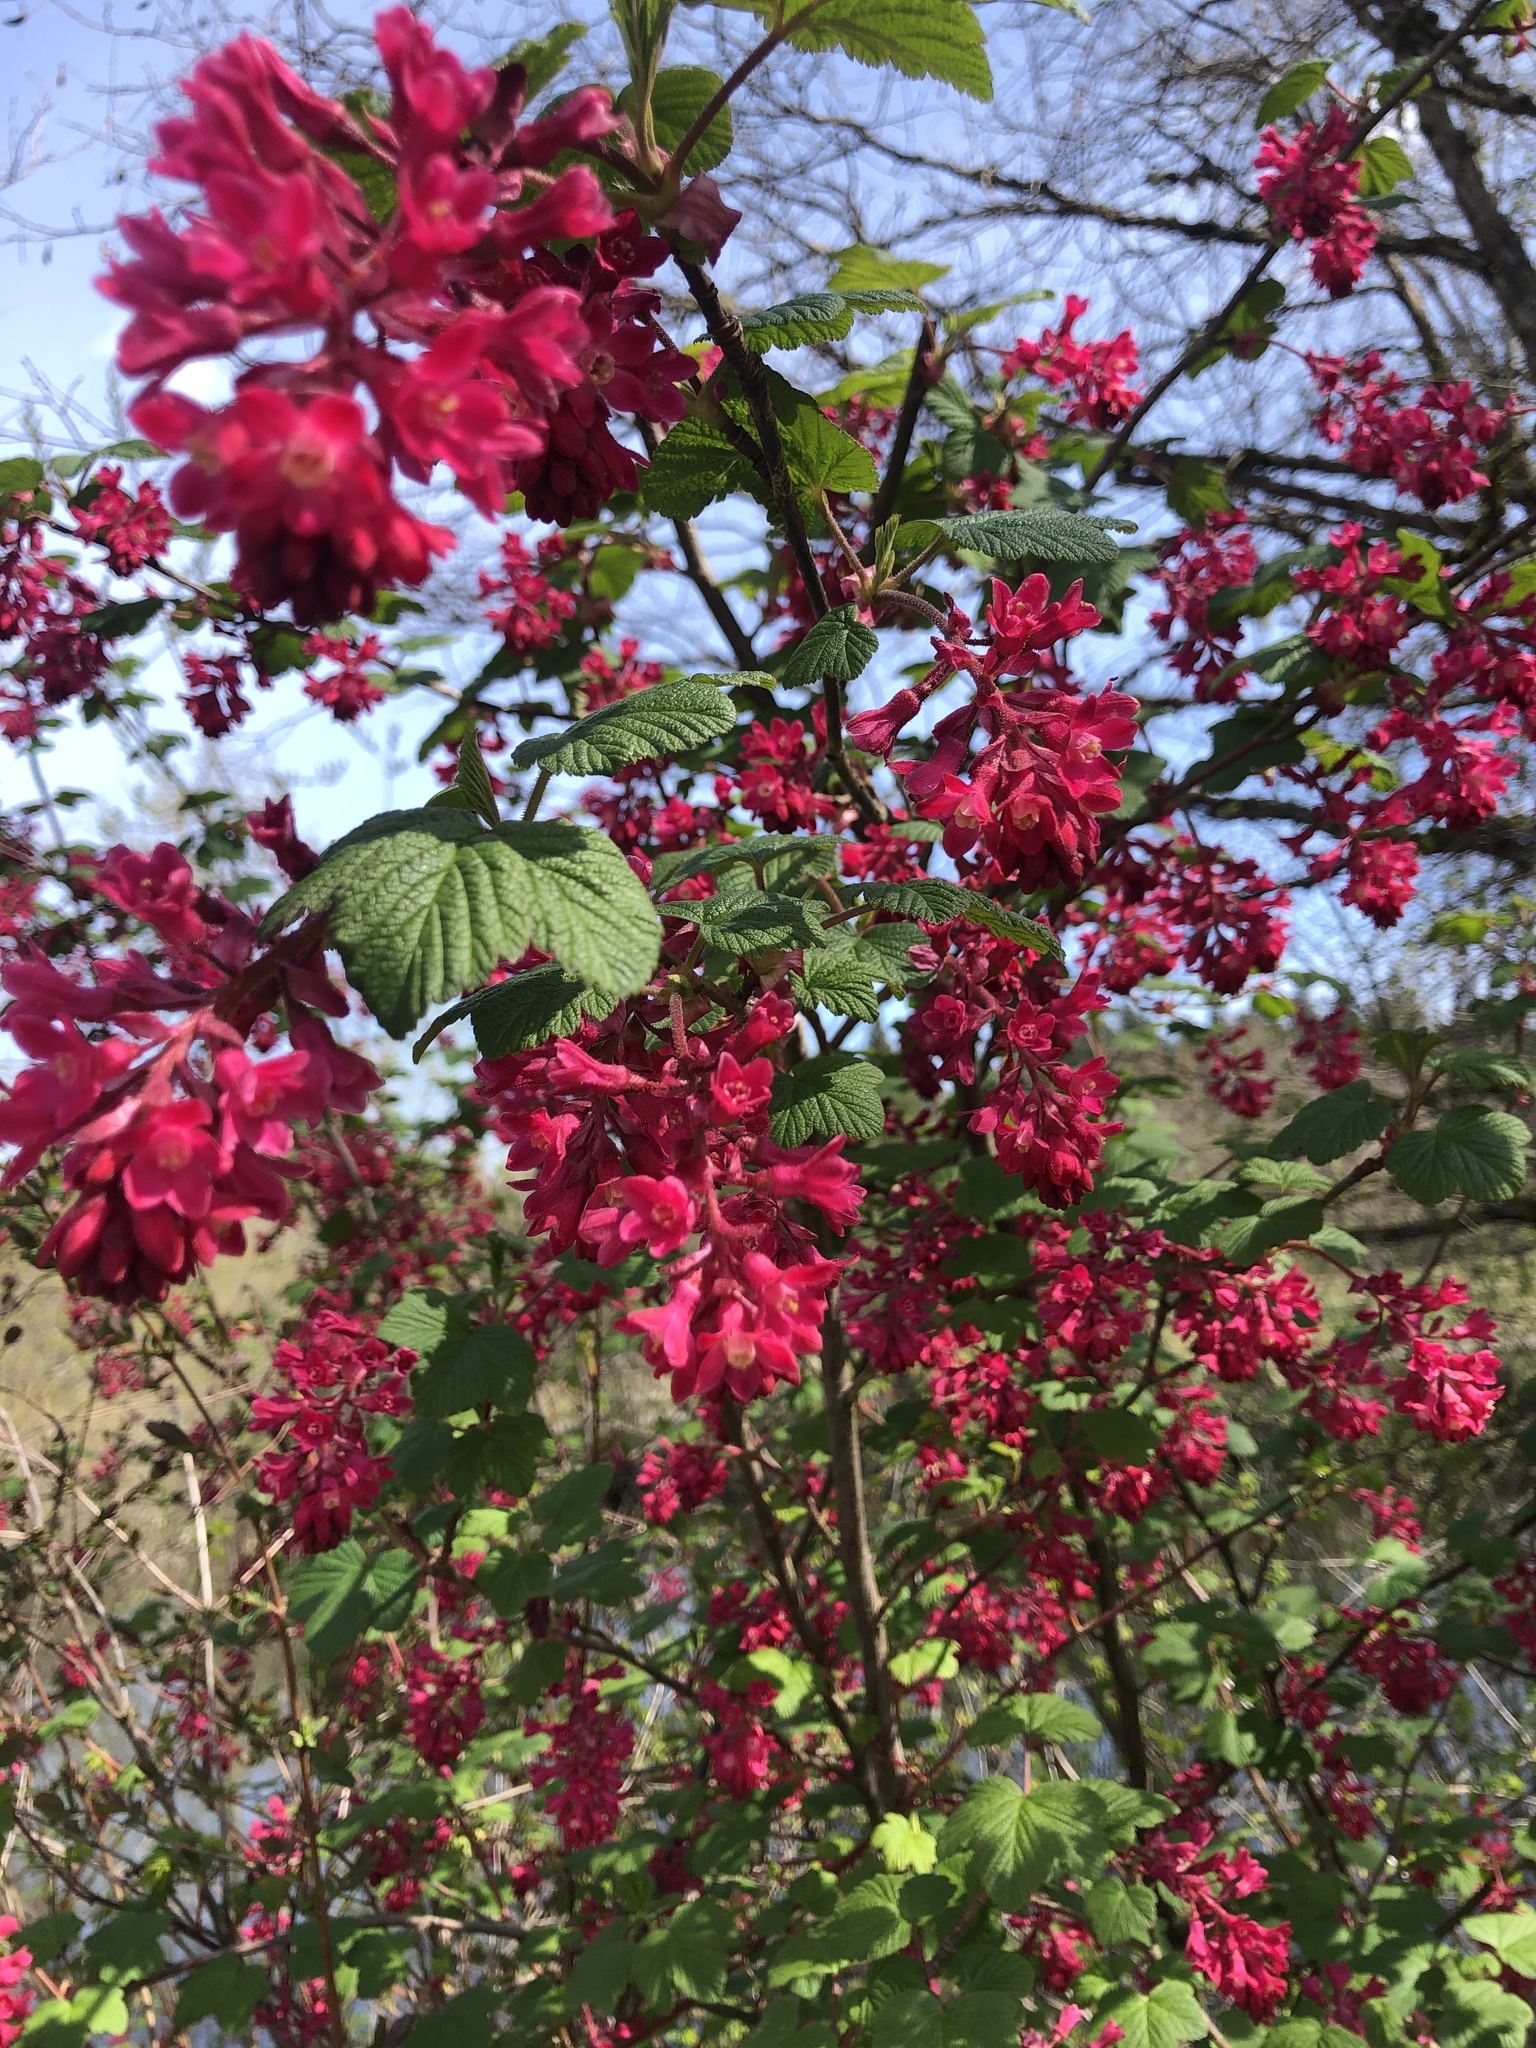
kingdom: Plantae
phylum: Tracheophyta
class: Magnoliopsida
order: Saxifragales
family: Grossulariaceae
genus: Ribes
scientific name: Ribes sanguineum
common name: Flowering currant
